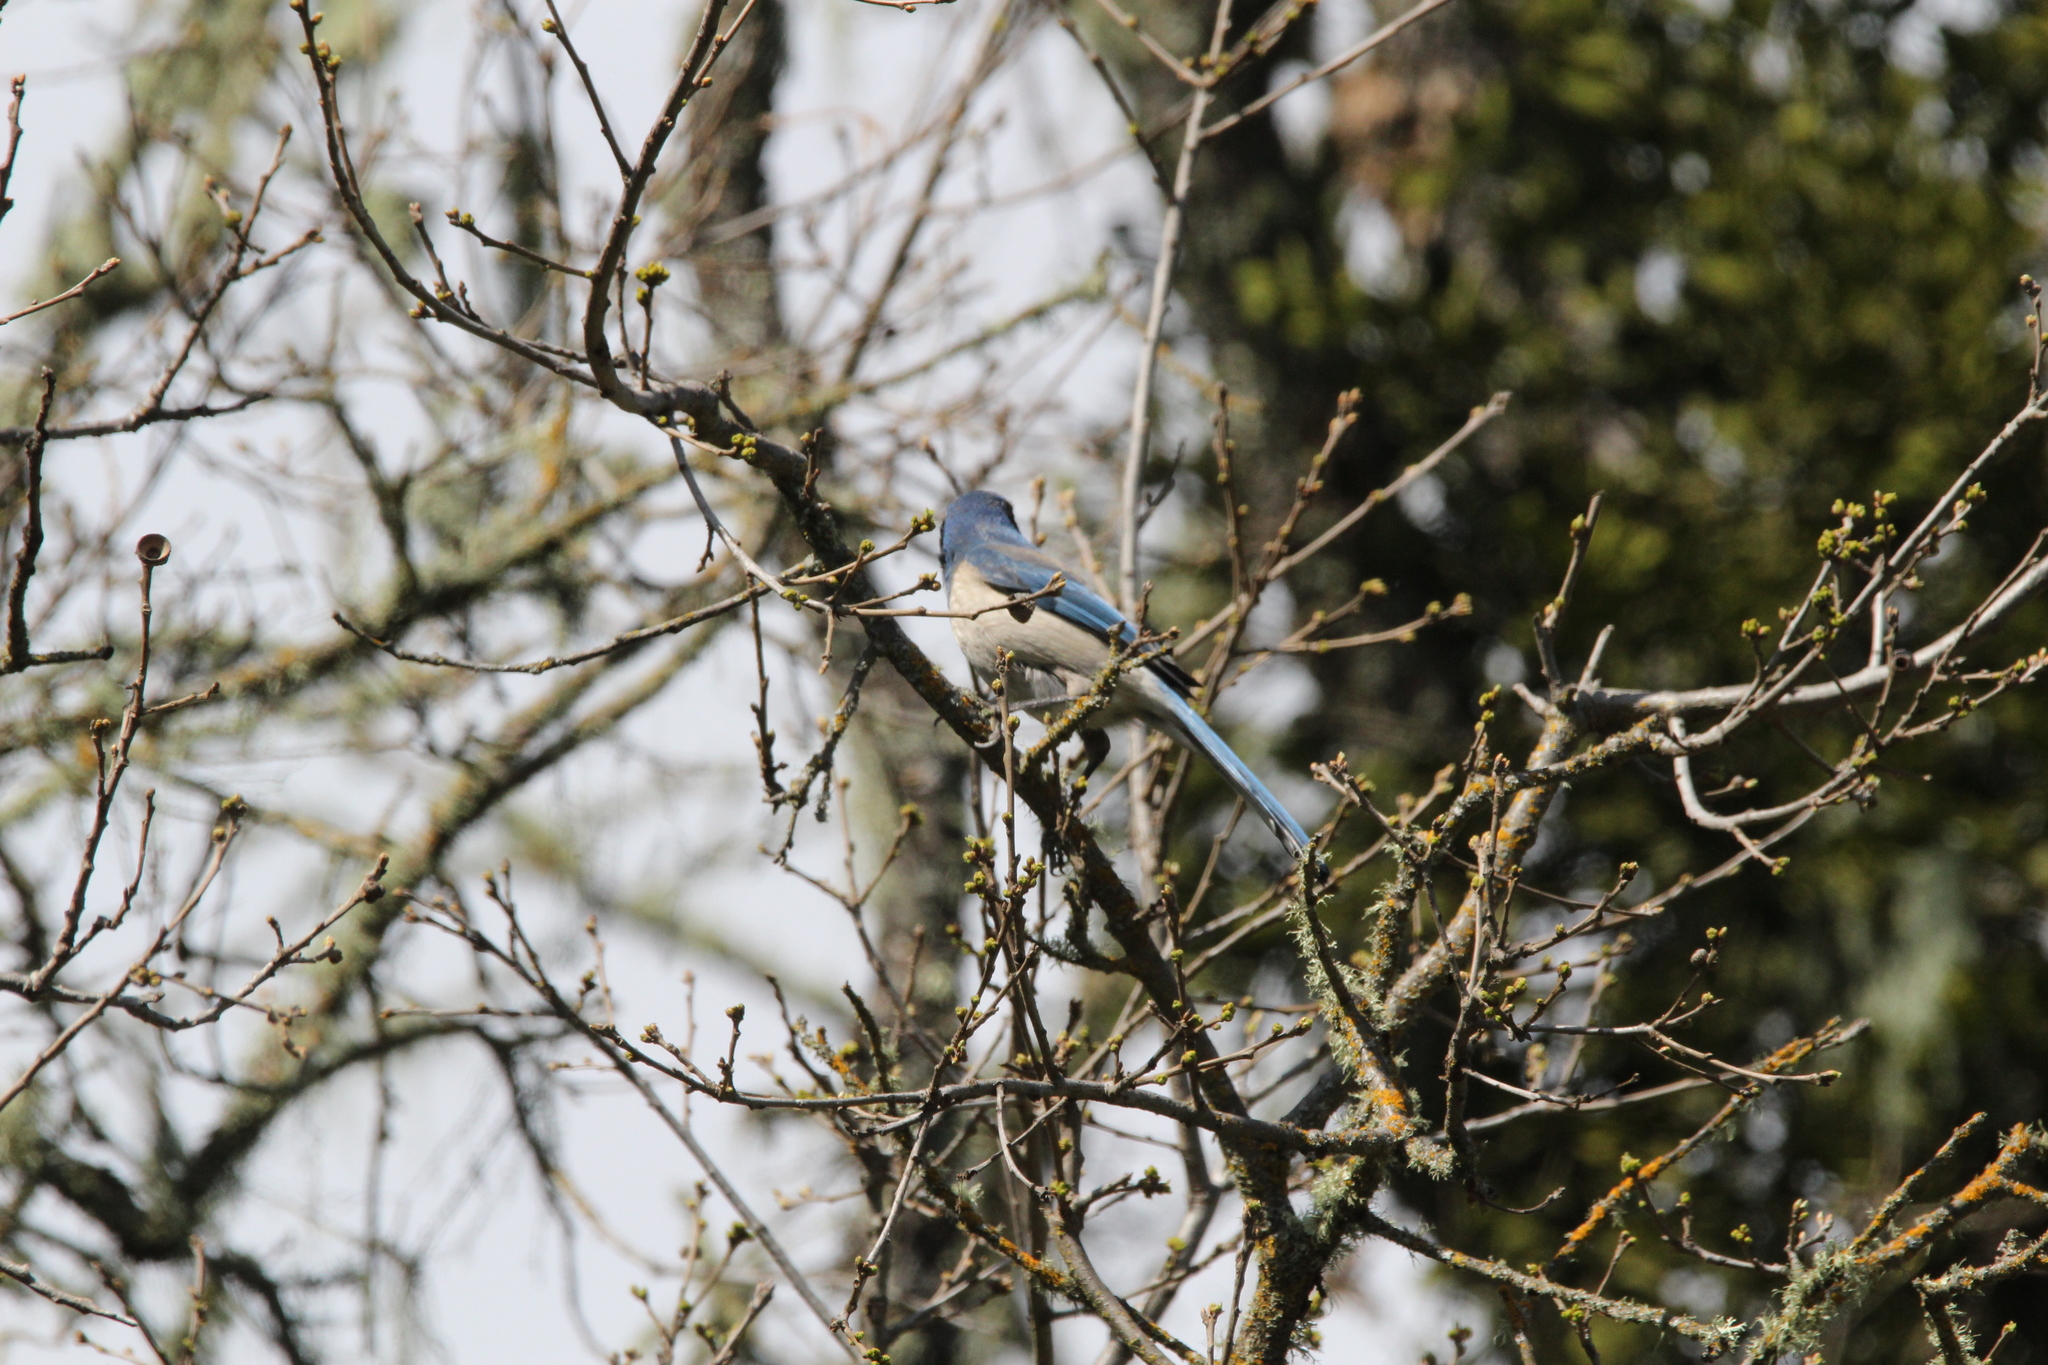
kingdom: Animalia
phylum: Chordata
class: Aves
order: Passeriformes
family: Corvidae
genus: Aphelocoma
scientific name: Aphelocoma californica
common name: California scrub-jay
